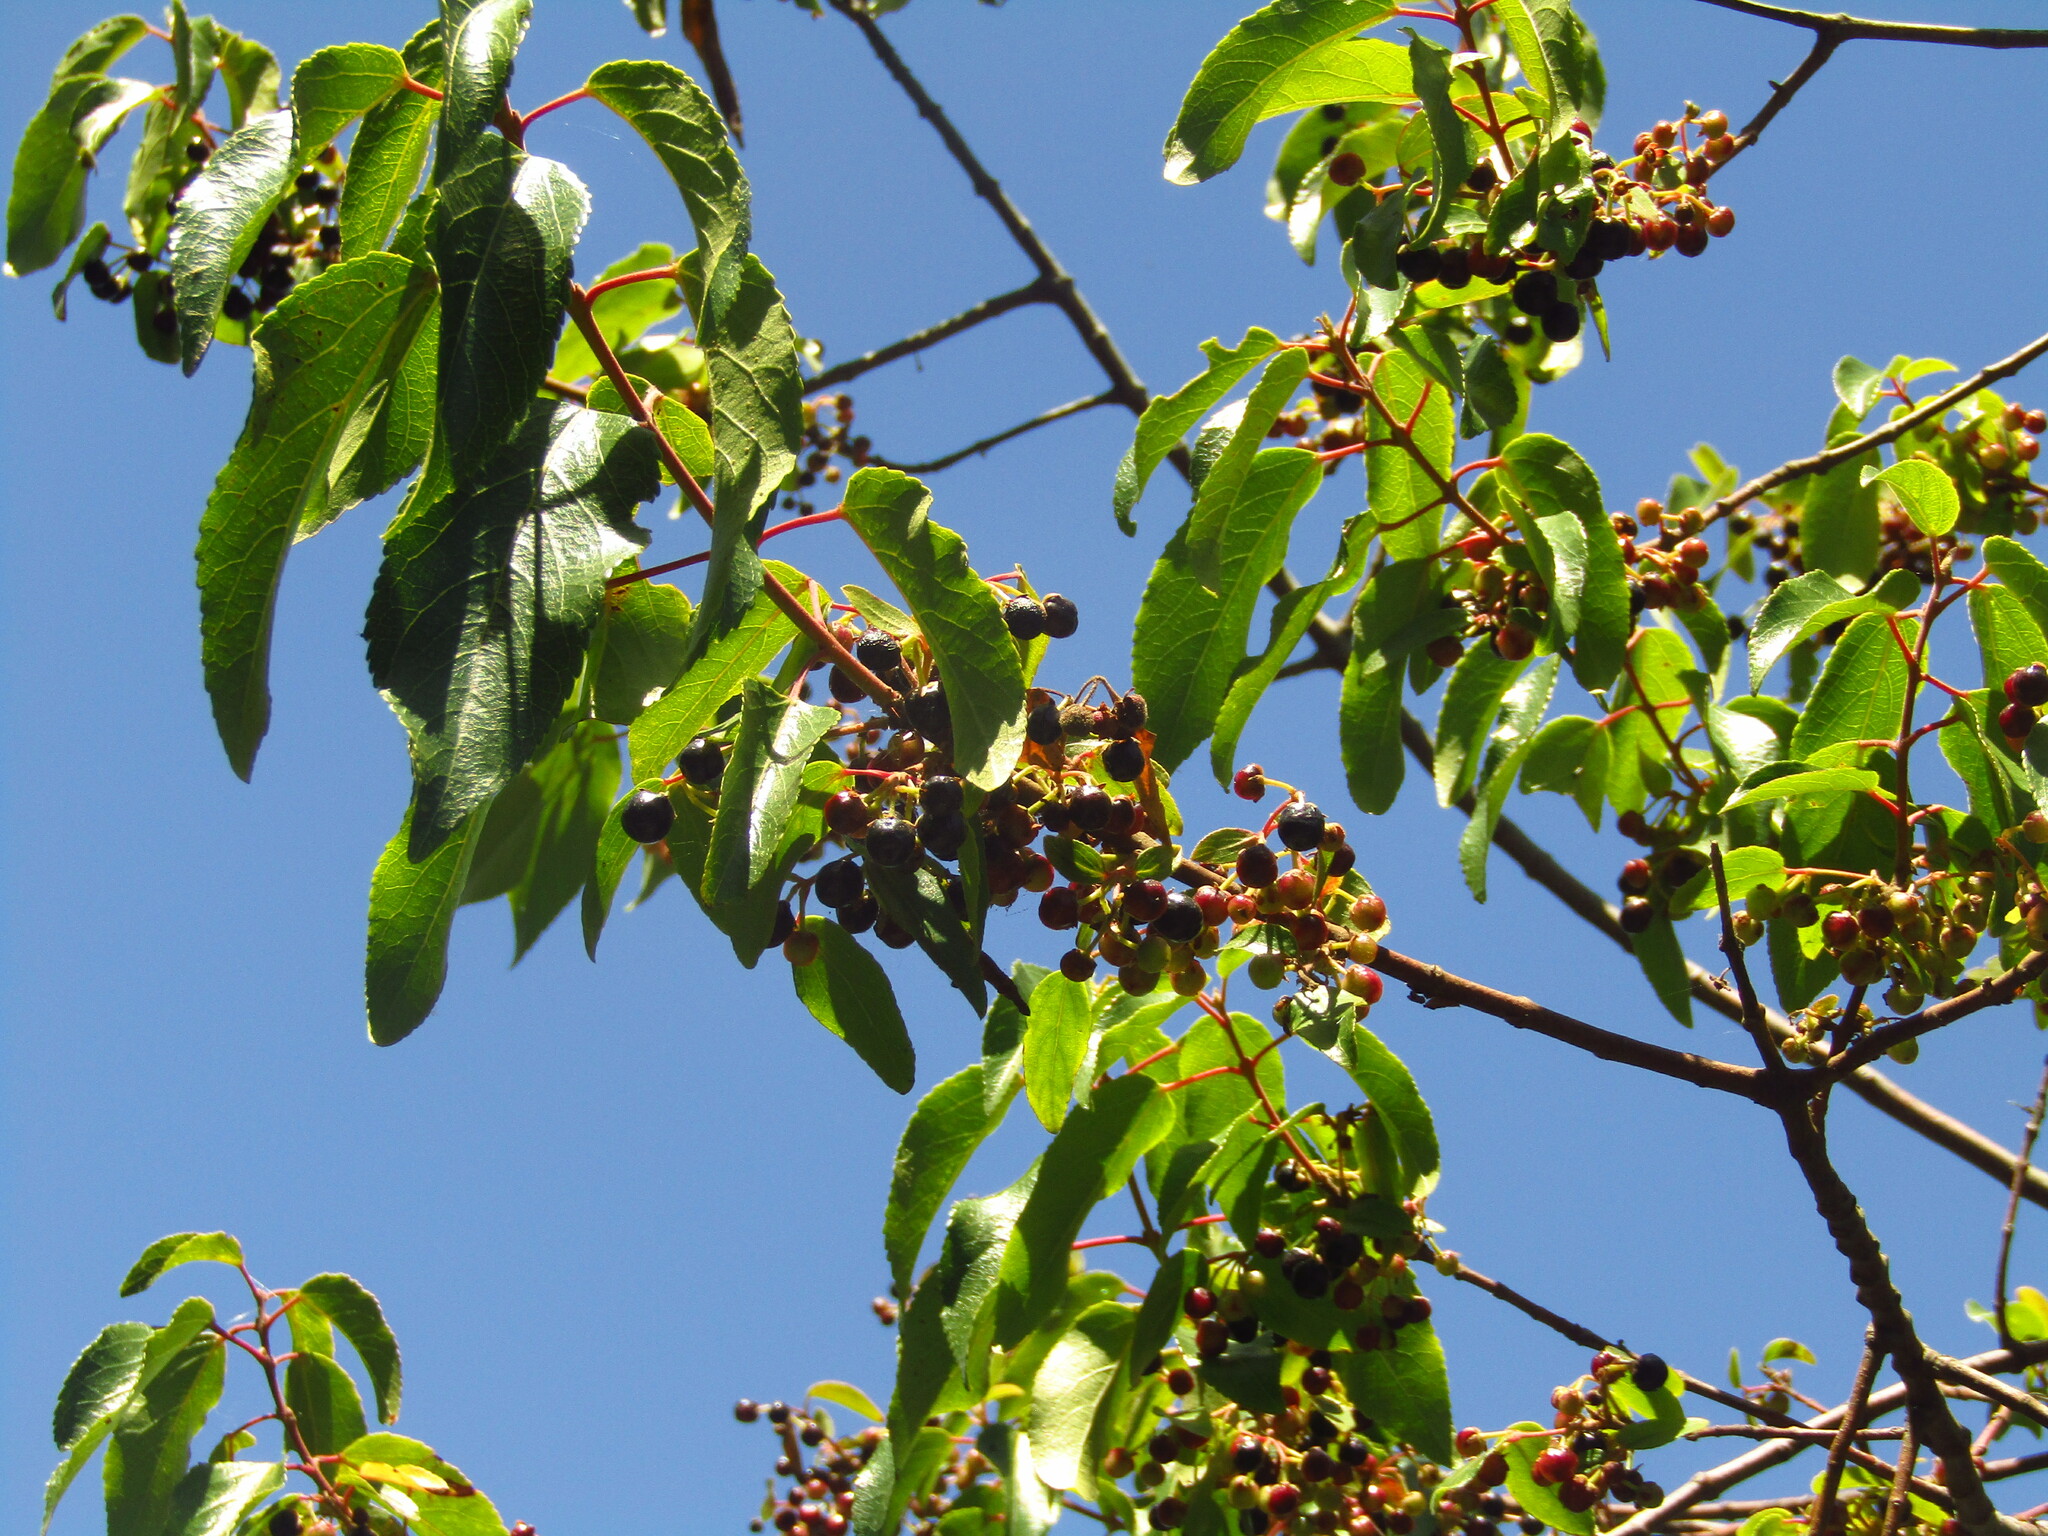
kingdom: Plantae
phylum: Tracheophyta
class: Magnoliopsida
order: Oxalidales
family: Elaeocarpaceae
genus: Aristotelia
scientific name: Aristotelia chilensis
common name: Maquei
